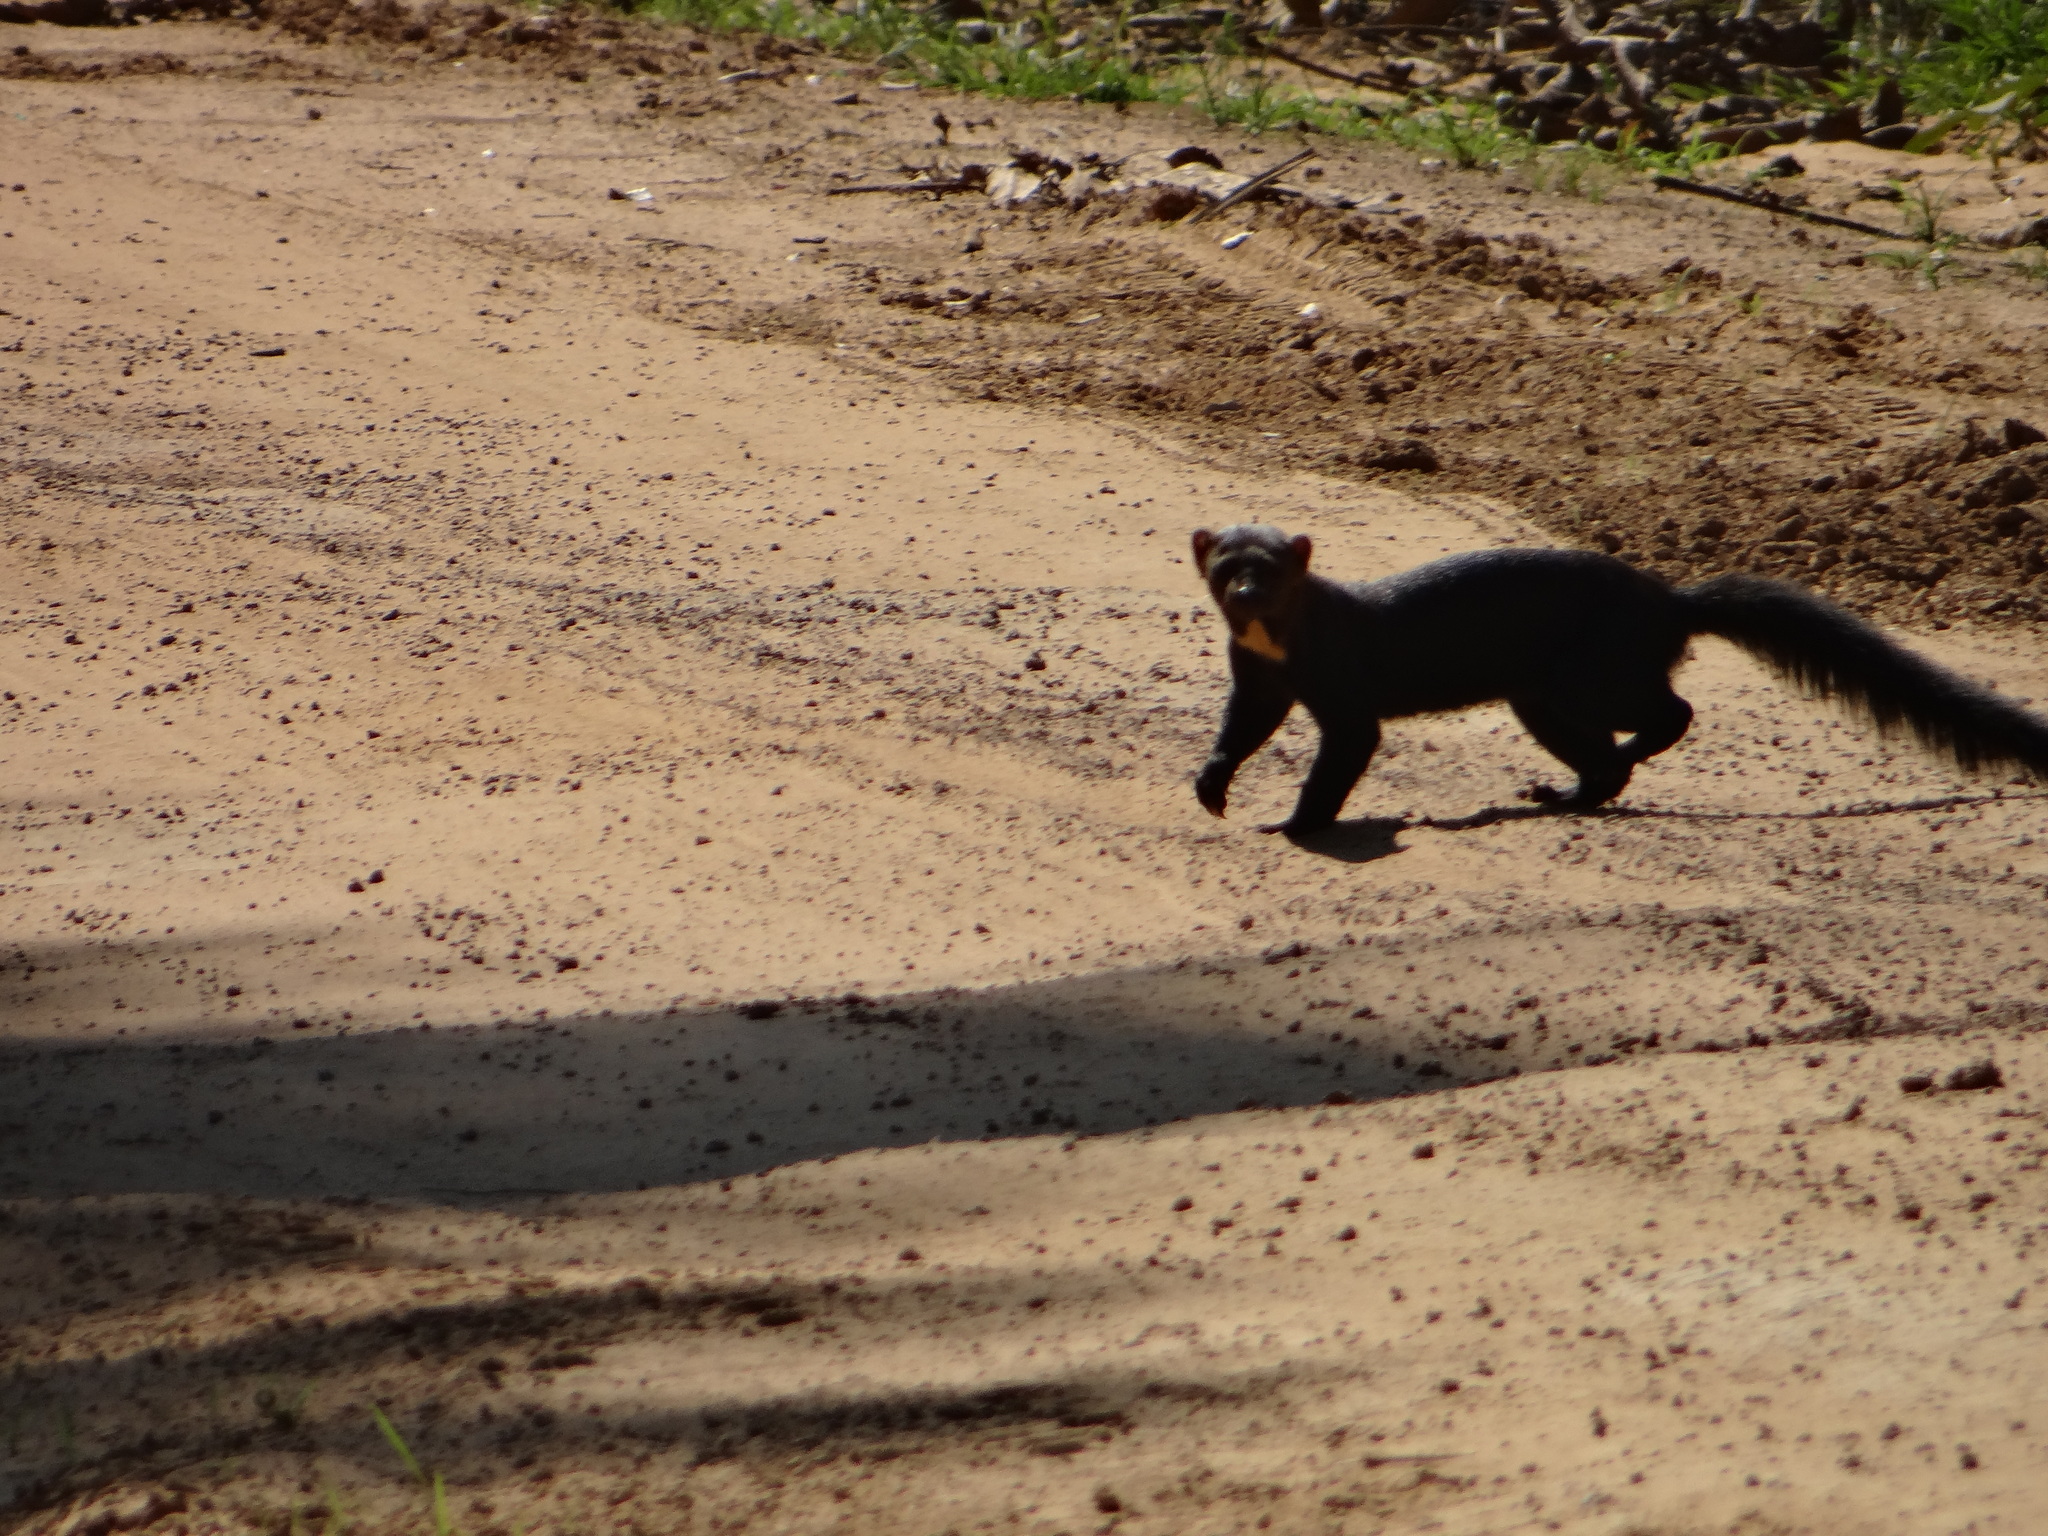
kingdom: Animalia
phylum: Chordata
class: Mammalia
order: Carnivora
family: Mustelidae
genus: Eira
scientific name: Eira barbara
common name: Tayra
